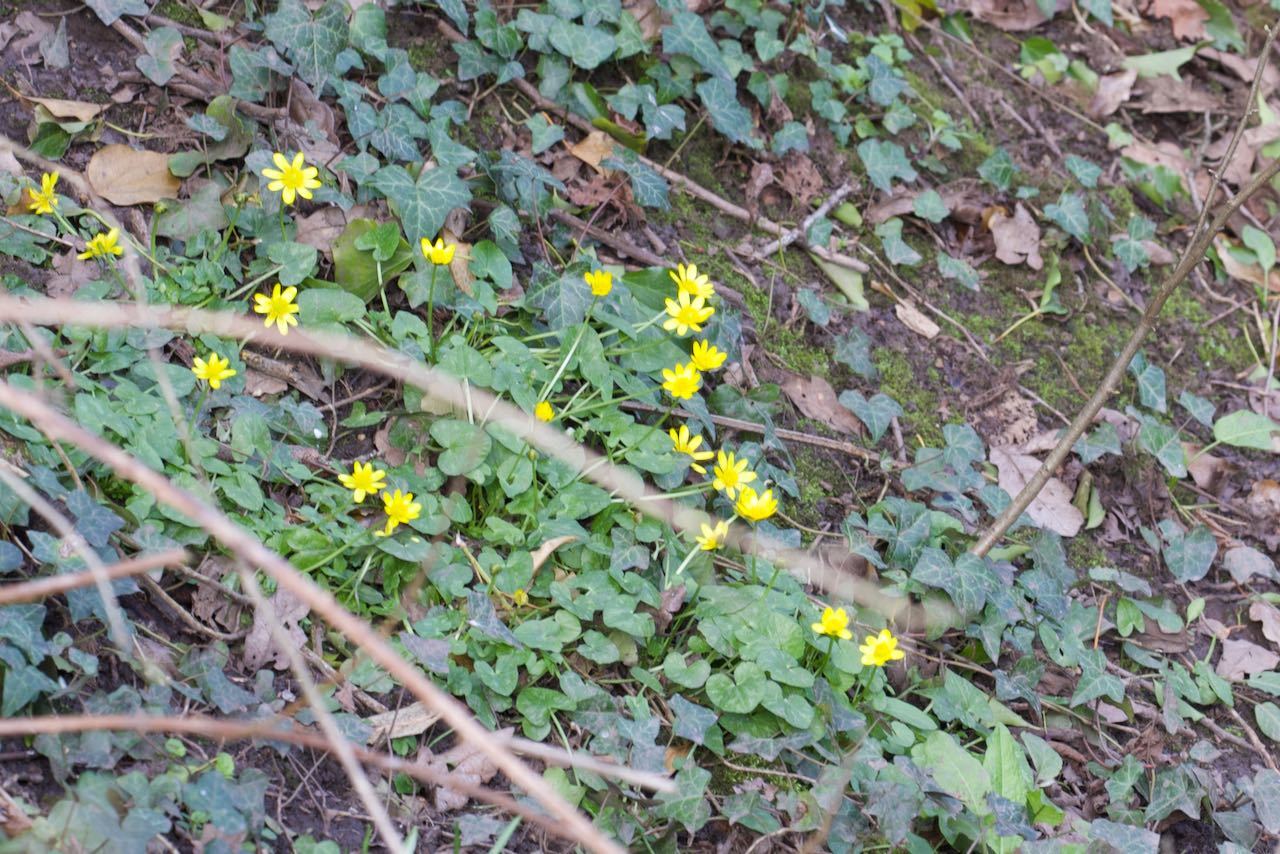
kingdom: Plantae
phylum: Tracheophyta
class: Magnoliopsida
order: Ranunculales
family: Ranunculaceae
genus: Ficaria
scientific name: Ficaria verna
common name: Lesser celandine
